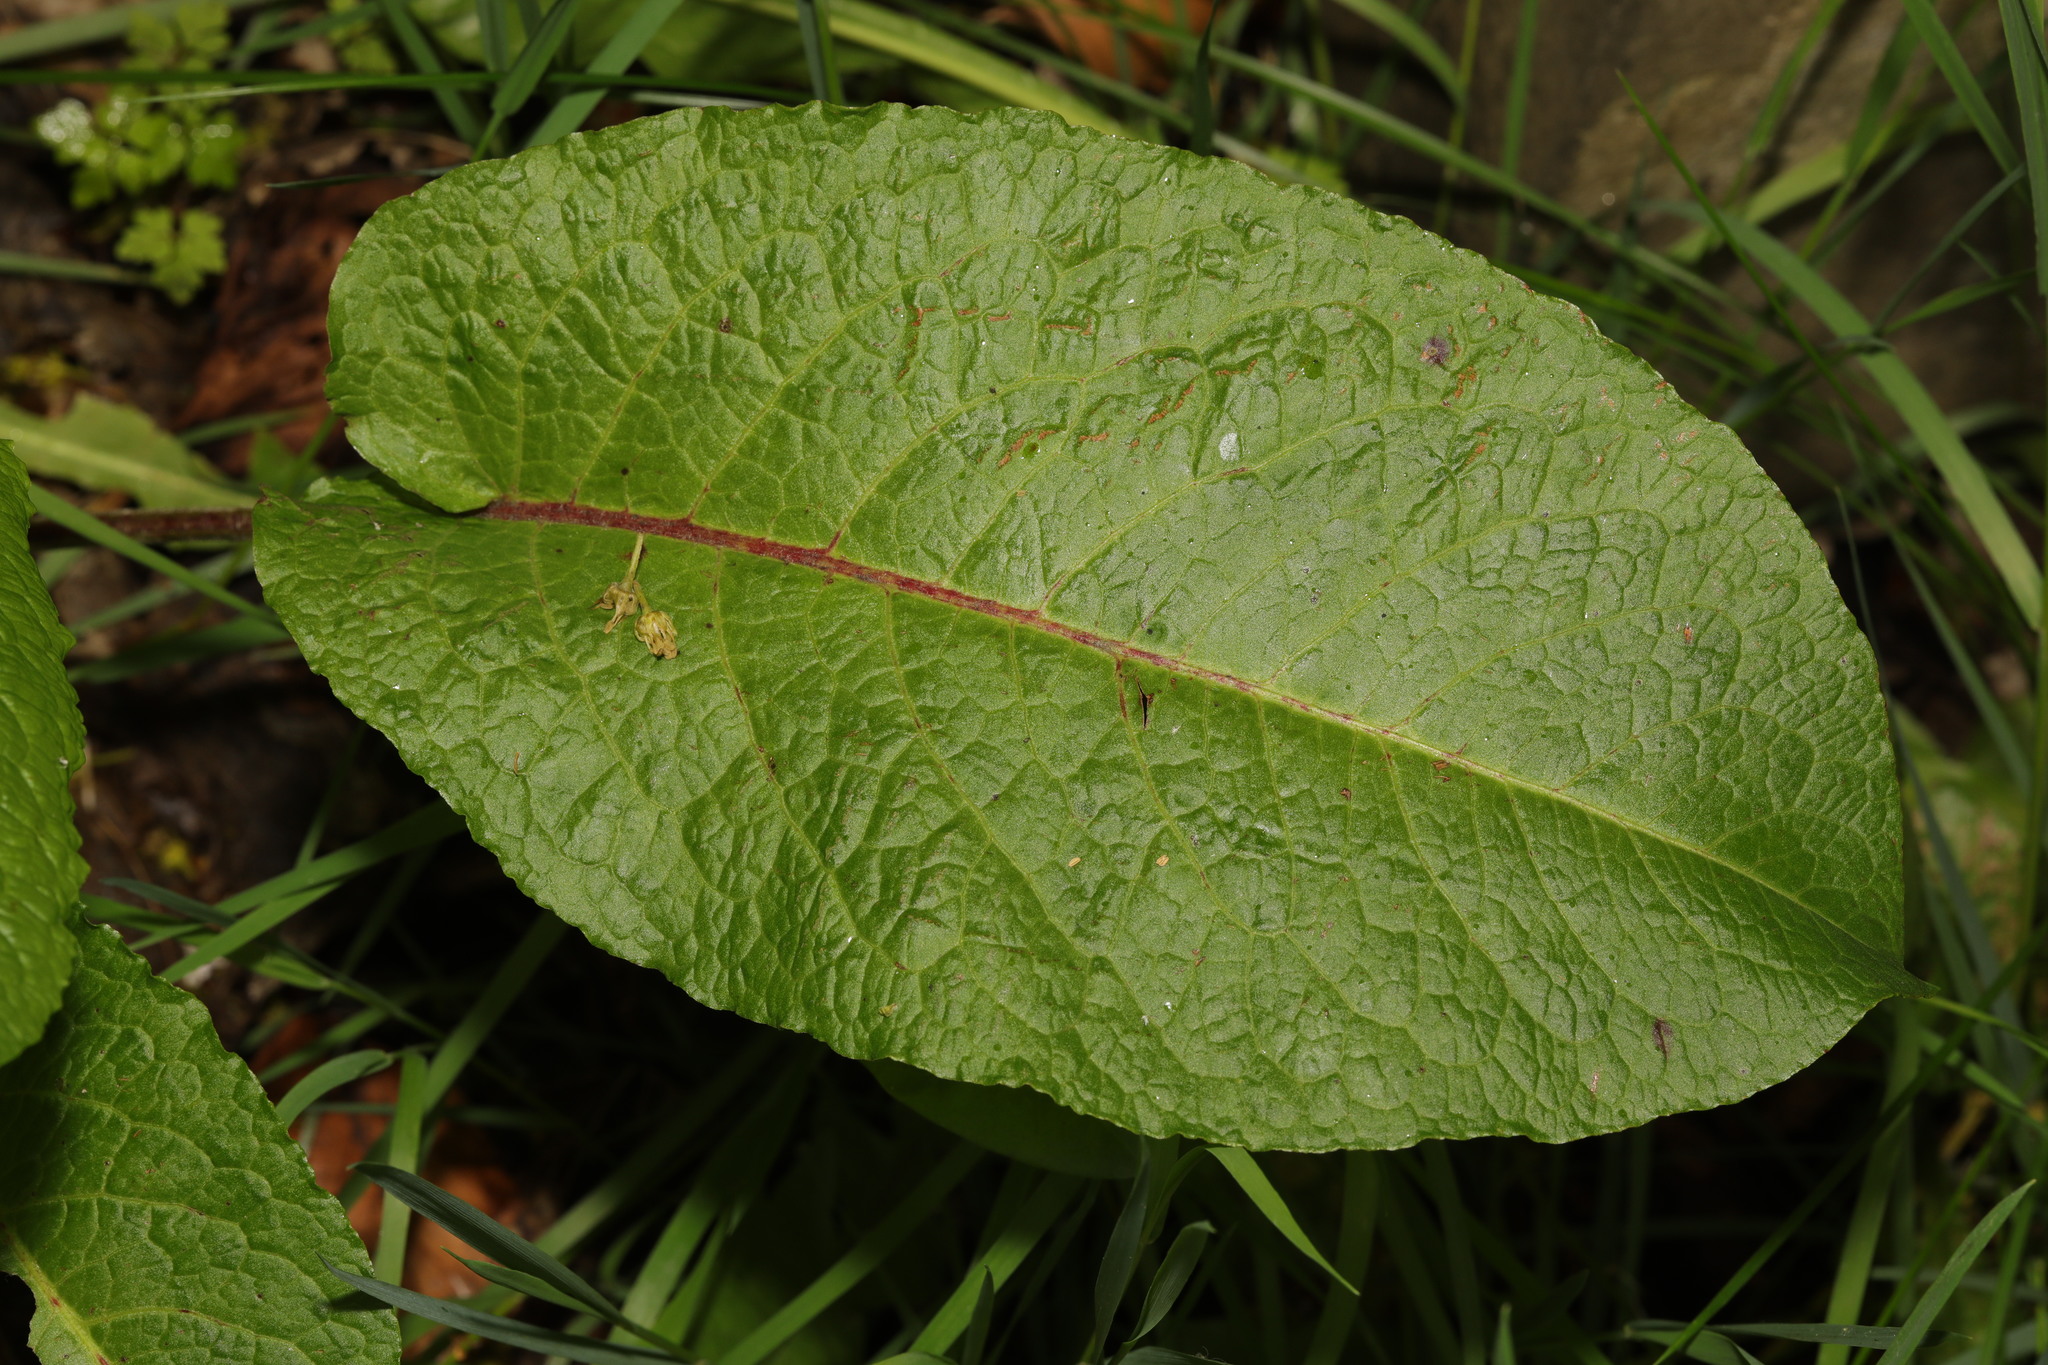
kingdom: Plantae
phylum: Tracheophyta
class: Magnoliopsida
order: Caryophyllales
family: Polygonaceae
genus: Rumex
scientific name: Rumex obtusifolius
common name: Bitter dock
